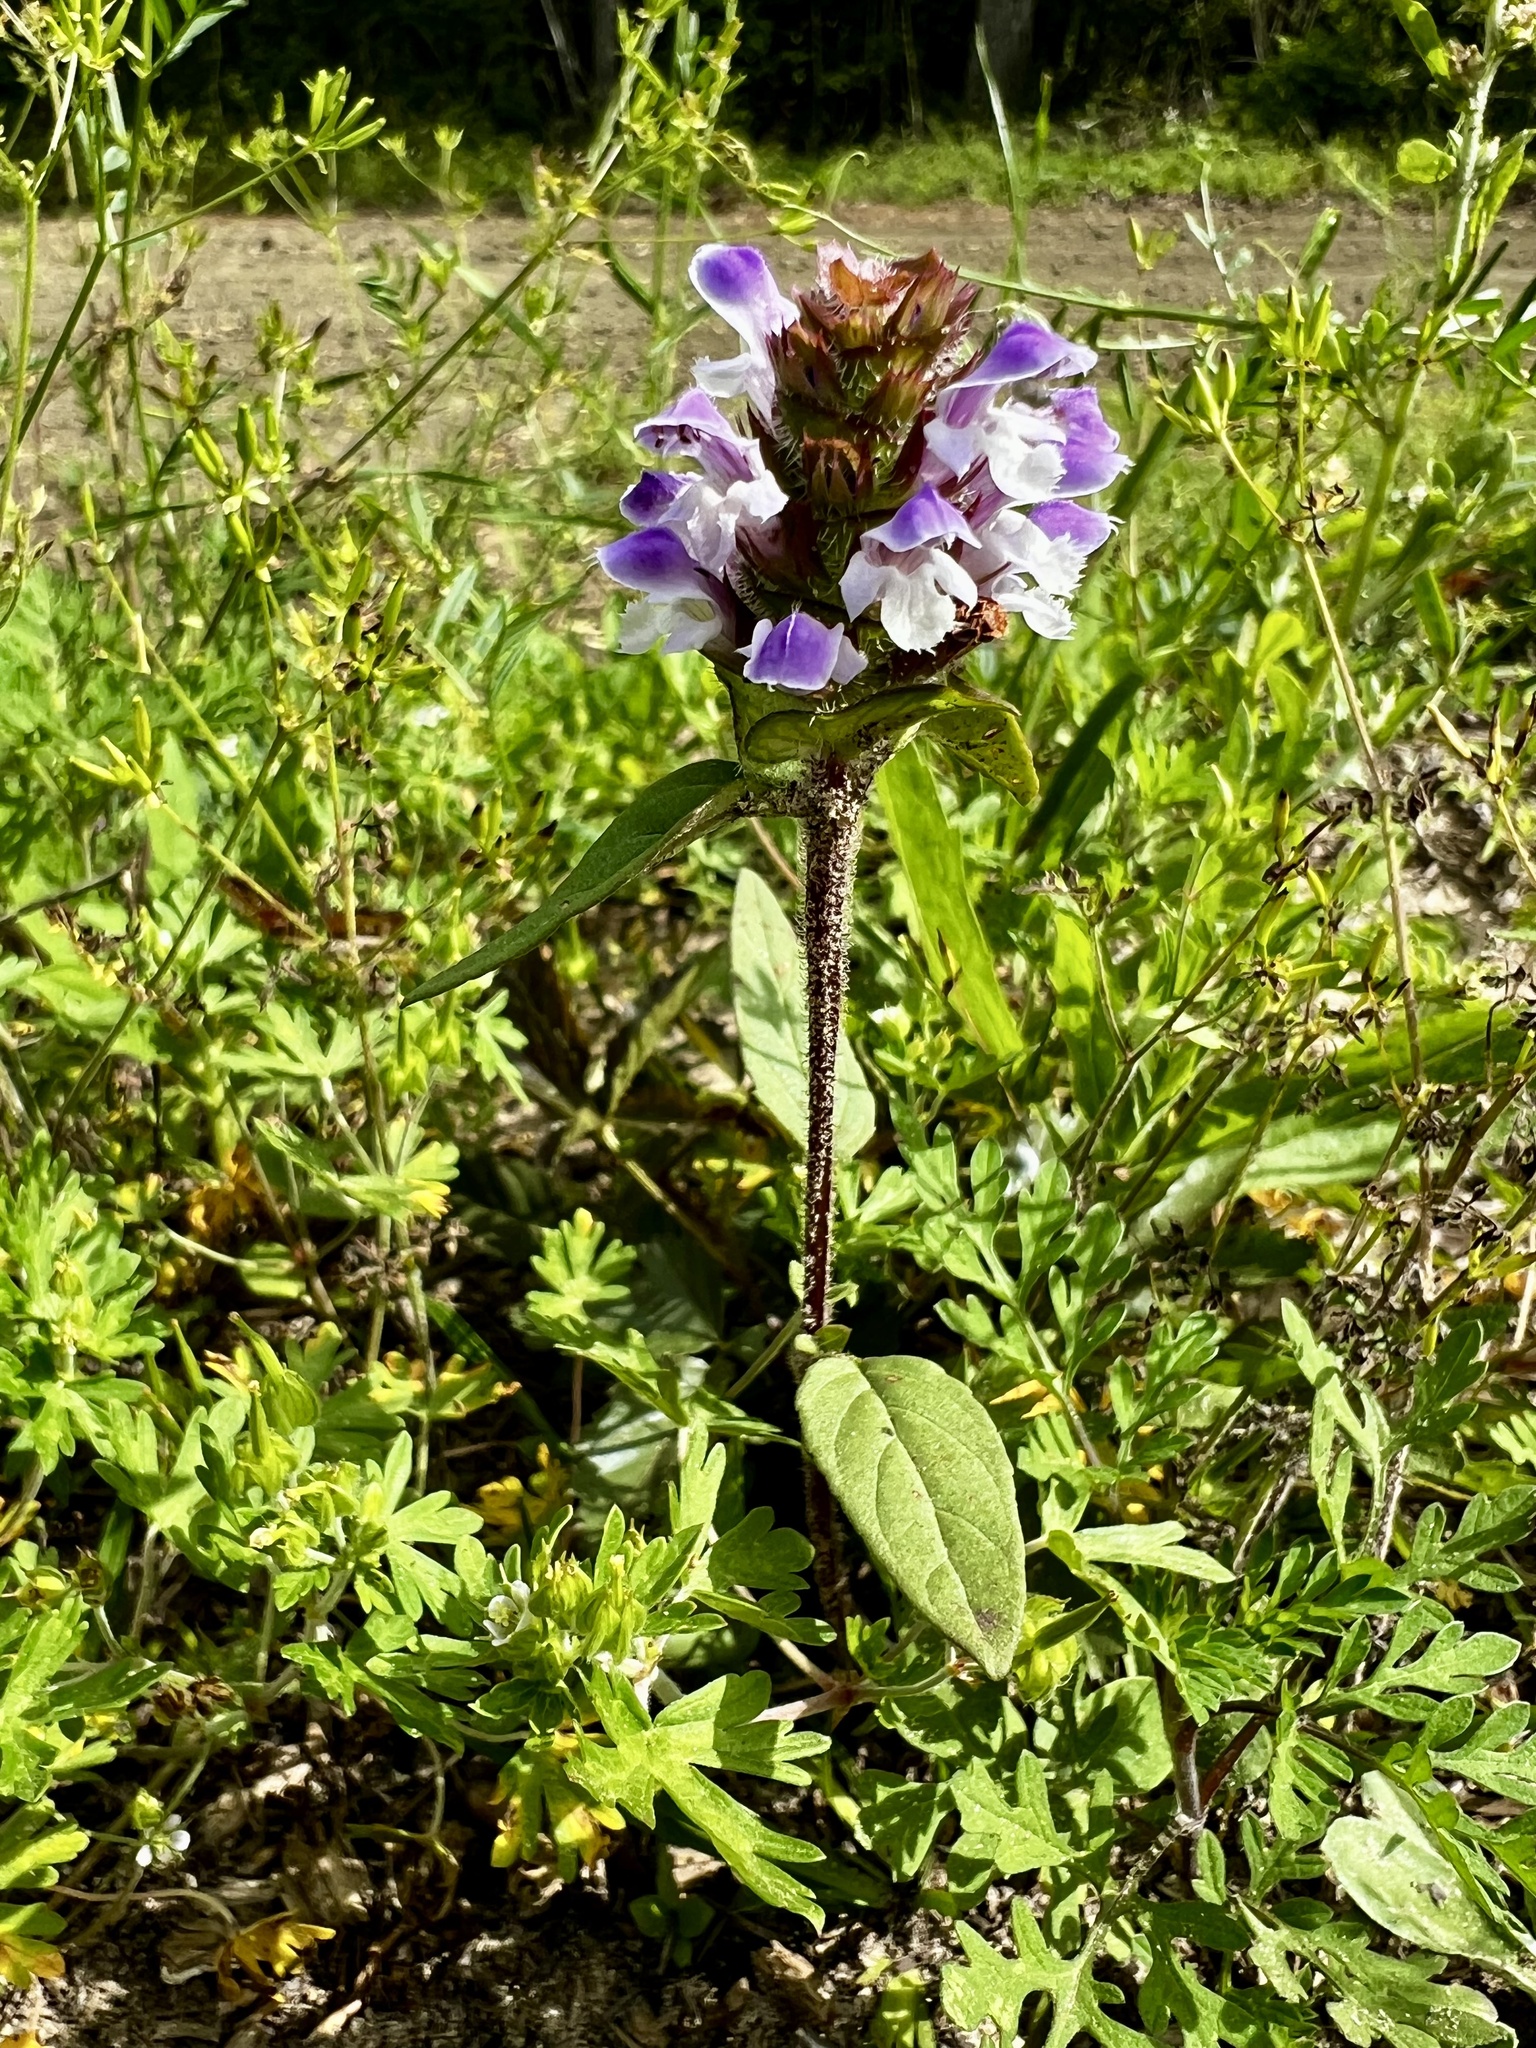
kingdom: Plantae
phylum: Tracheophyta
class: Magnoliopsida
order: Lamiales
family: Lamiaceae
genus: Prunella
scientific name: Prunella vulgaris
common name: Heal-all
